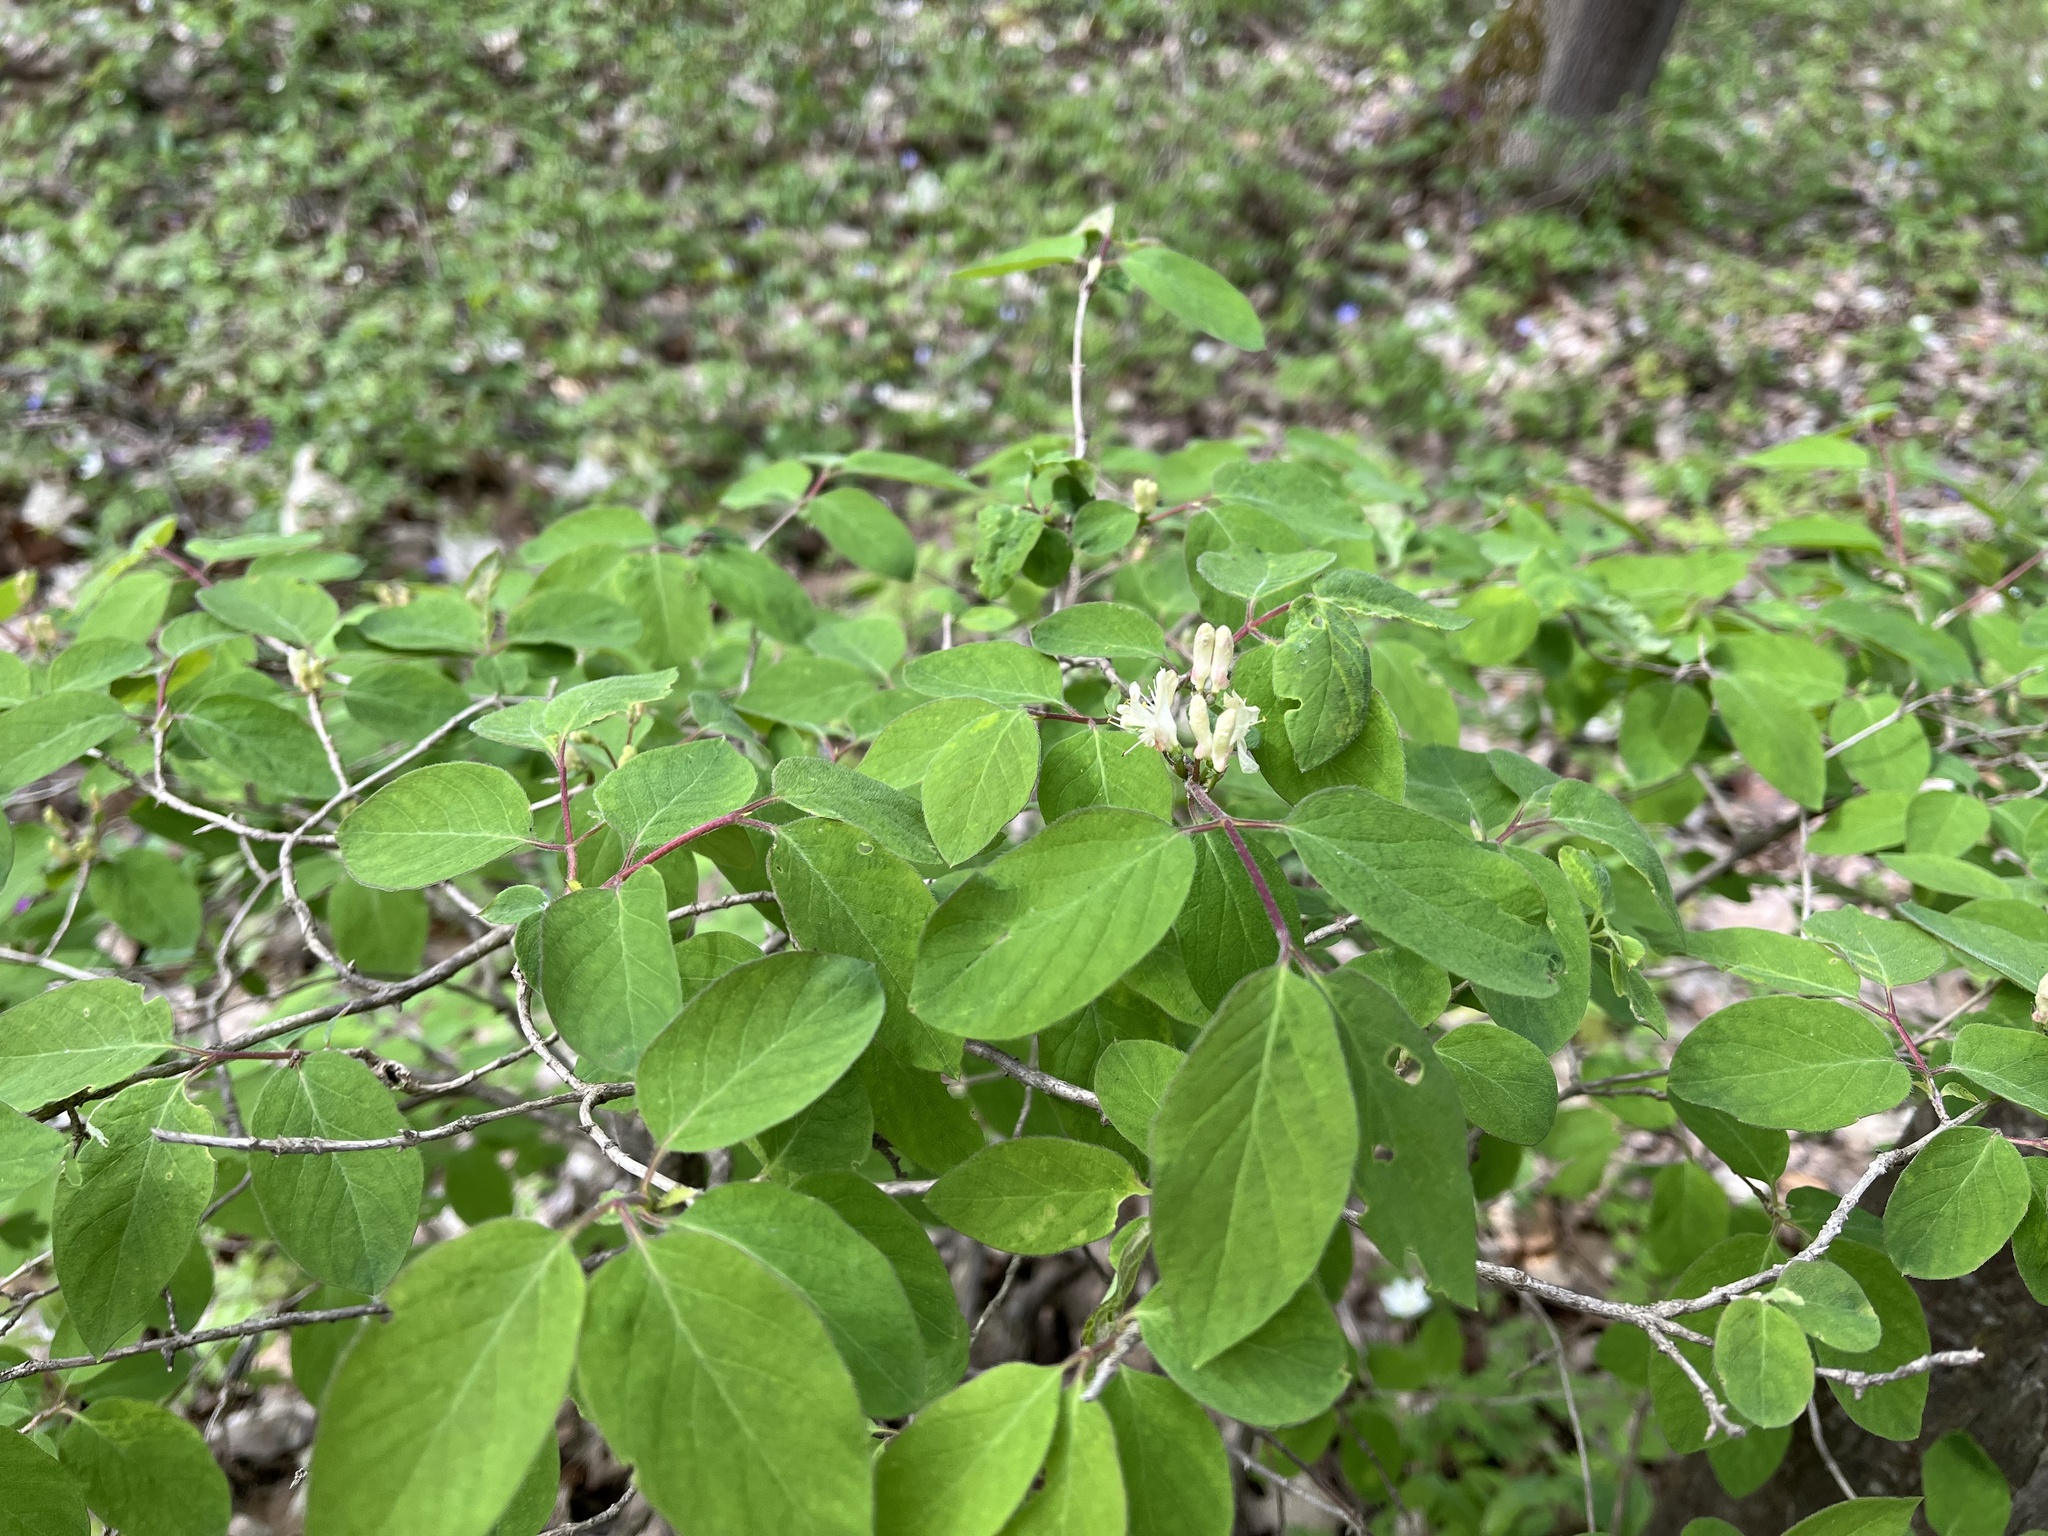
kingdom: Plantae
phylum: Tracheophyta
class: Magnoliopsida
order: Dipsacales
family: Caprifoliaceae
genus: Lonicera
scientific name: Lonicera xylosteum
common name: Fly honeysuckle
